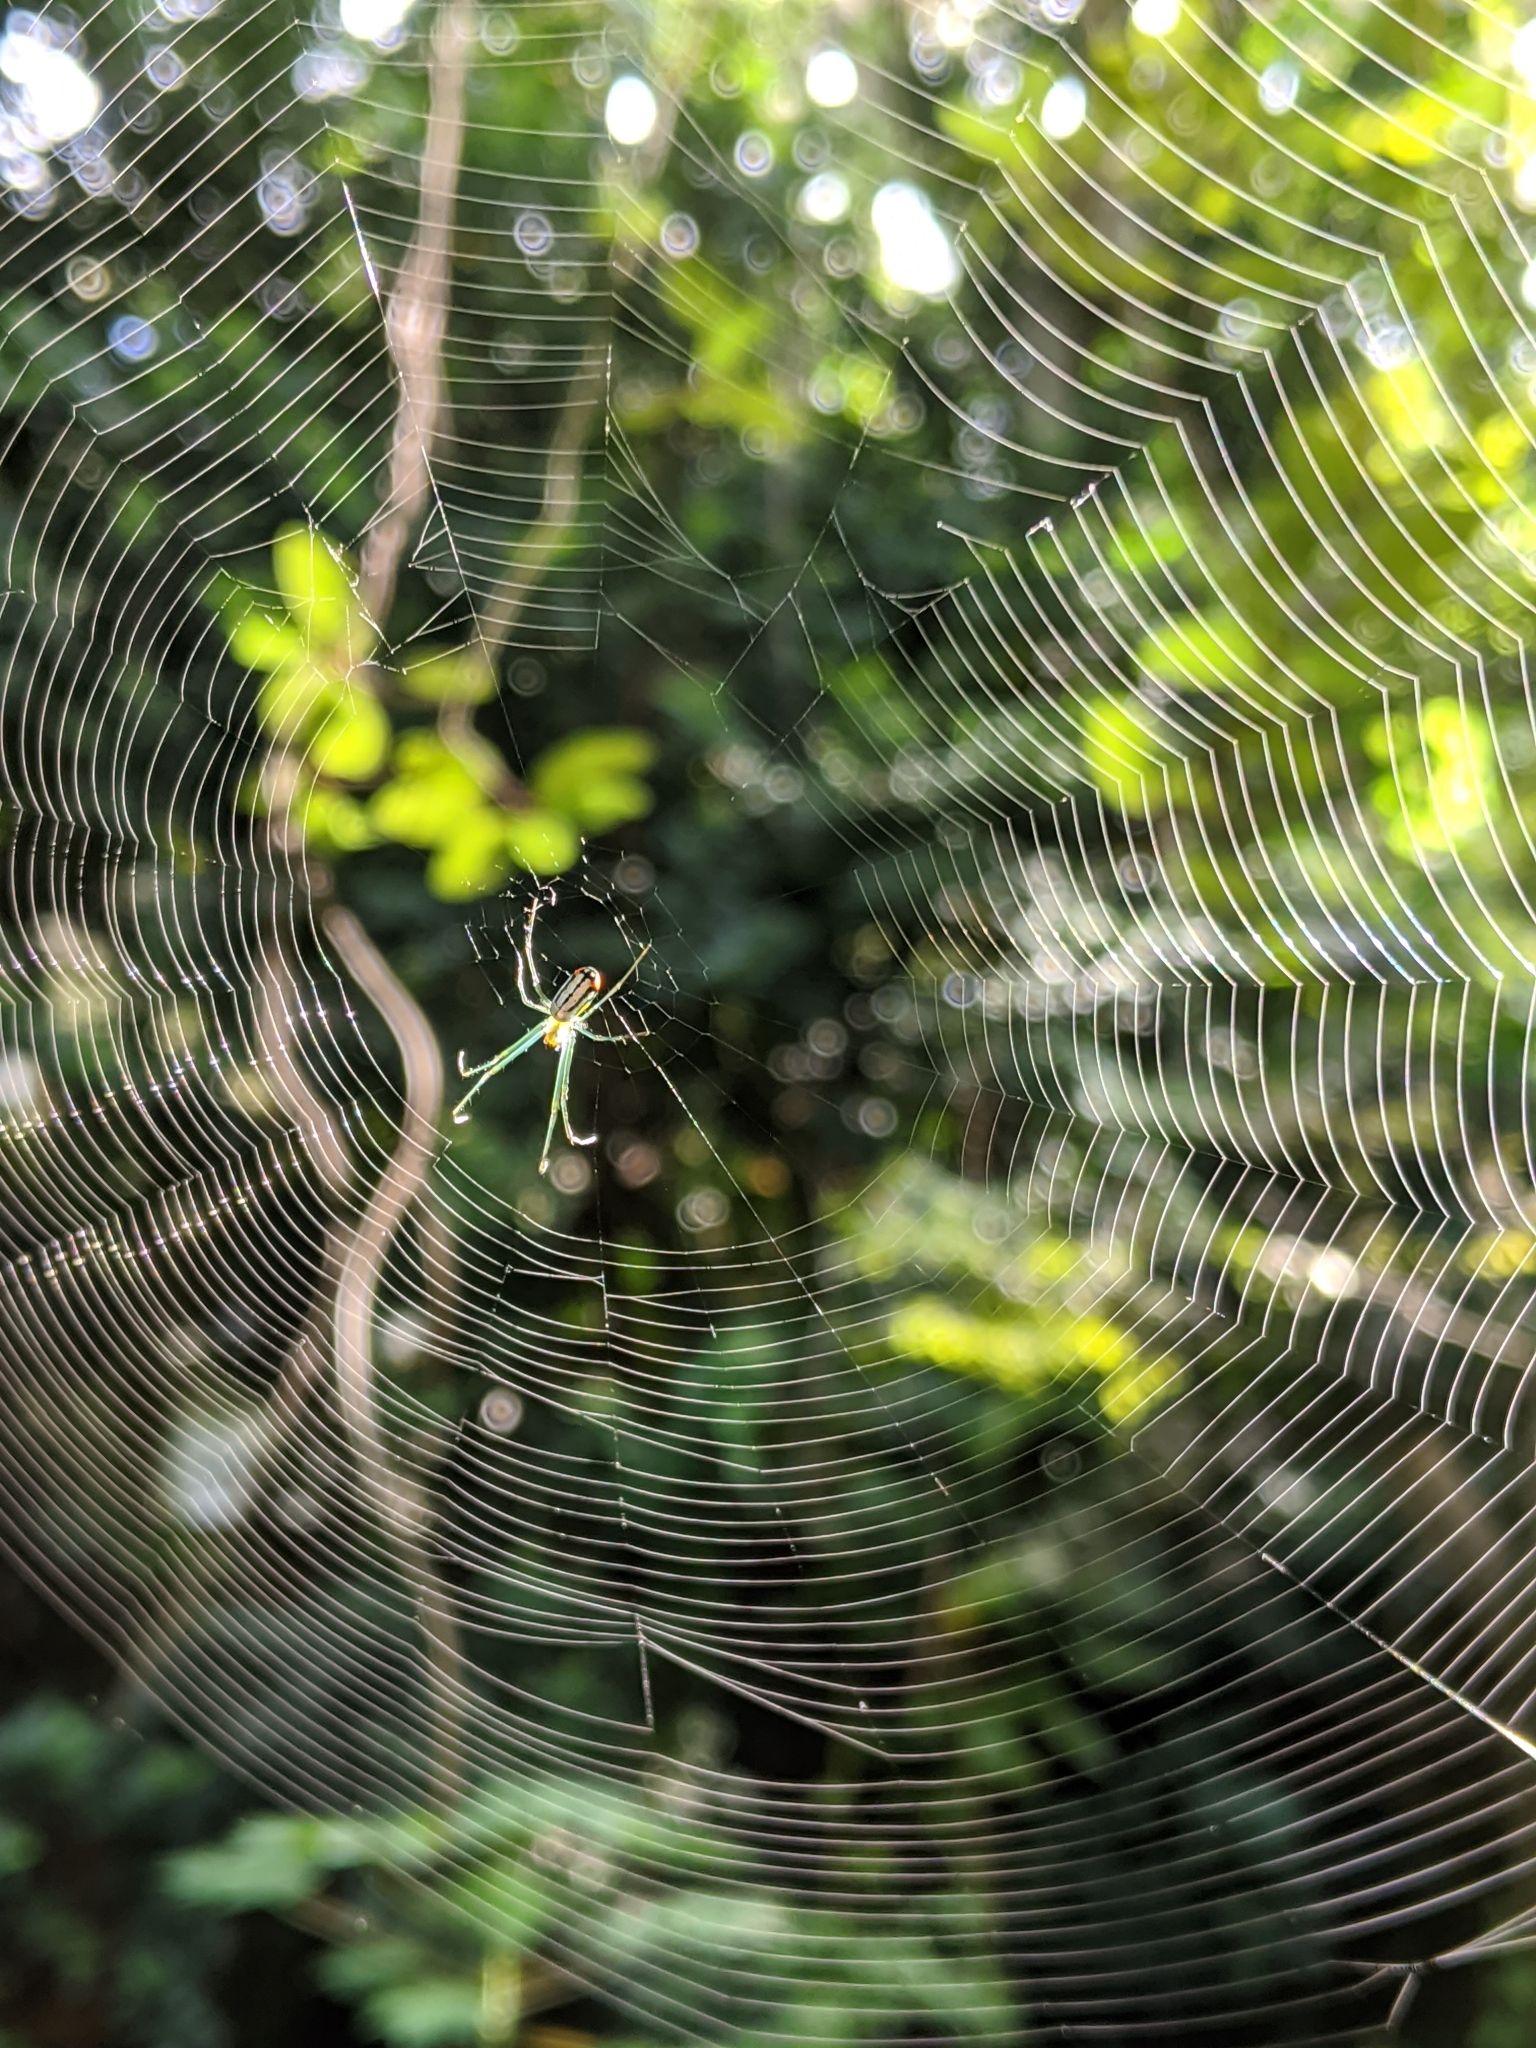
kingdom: Animalia
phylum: Arthropoda
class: Arachnida
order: Araneae
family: Tetragnathidae
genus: Leucauge
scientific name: Leucauge argyrobapta
